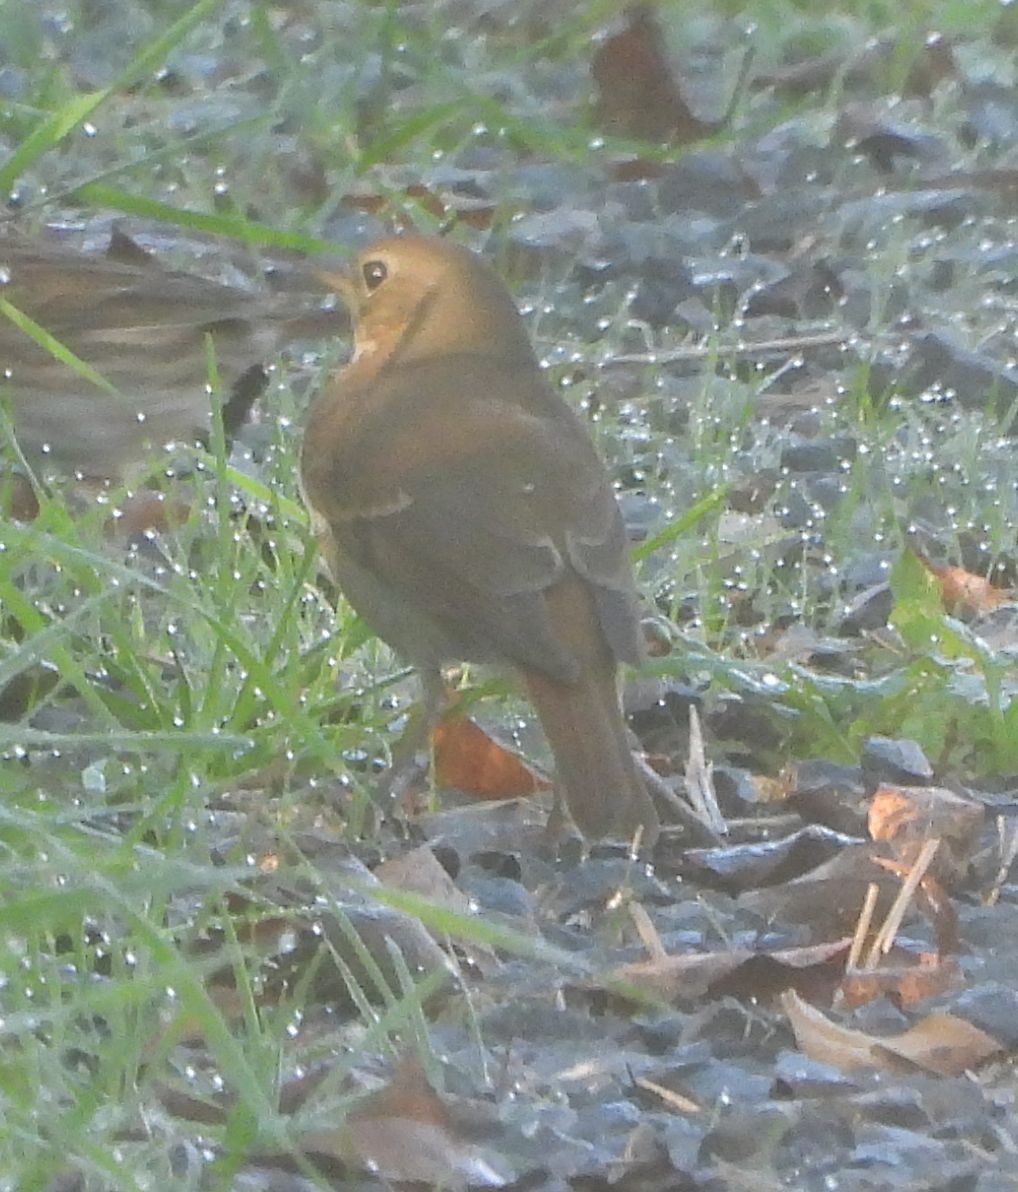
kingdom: Animalia
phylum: Chordata
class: Aves
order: Passeriformes
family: Turdidae
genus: Catharus
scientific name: Catharus guttatus
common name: Hermit thrush
